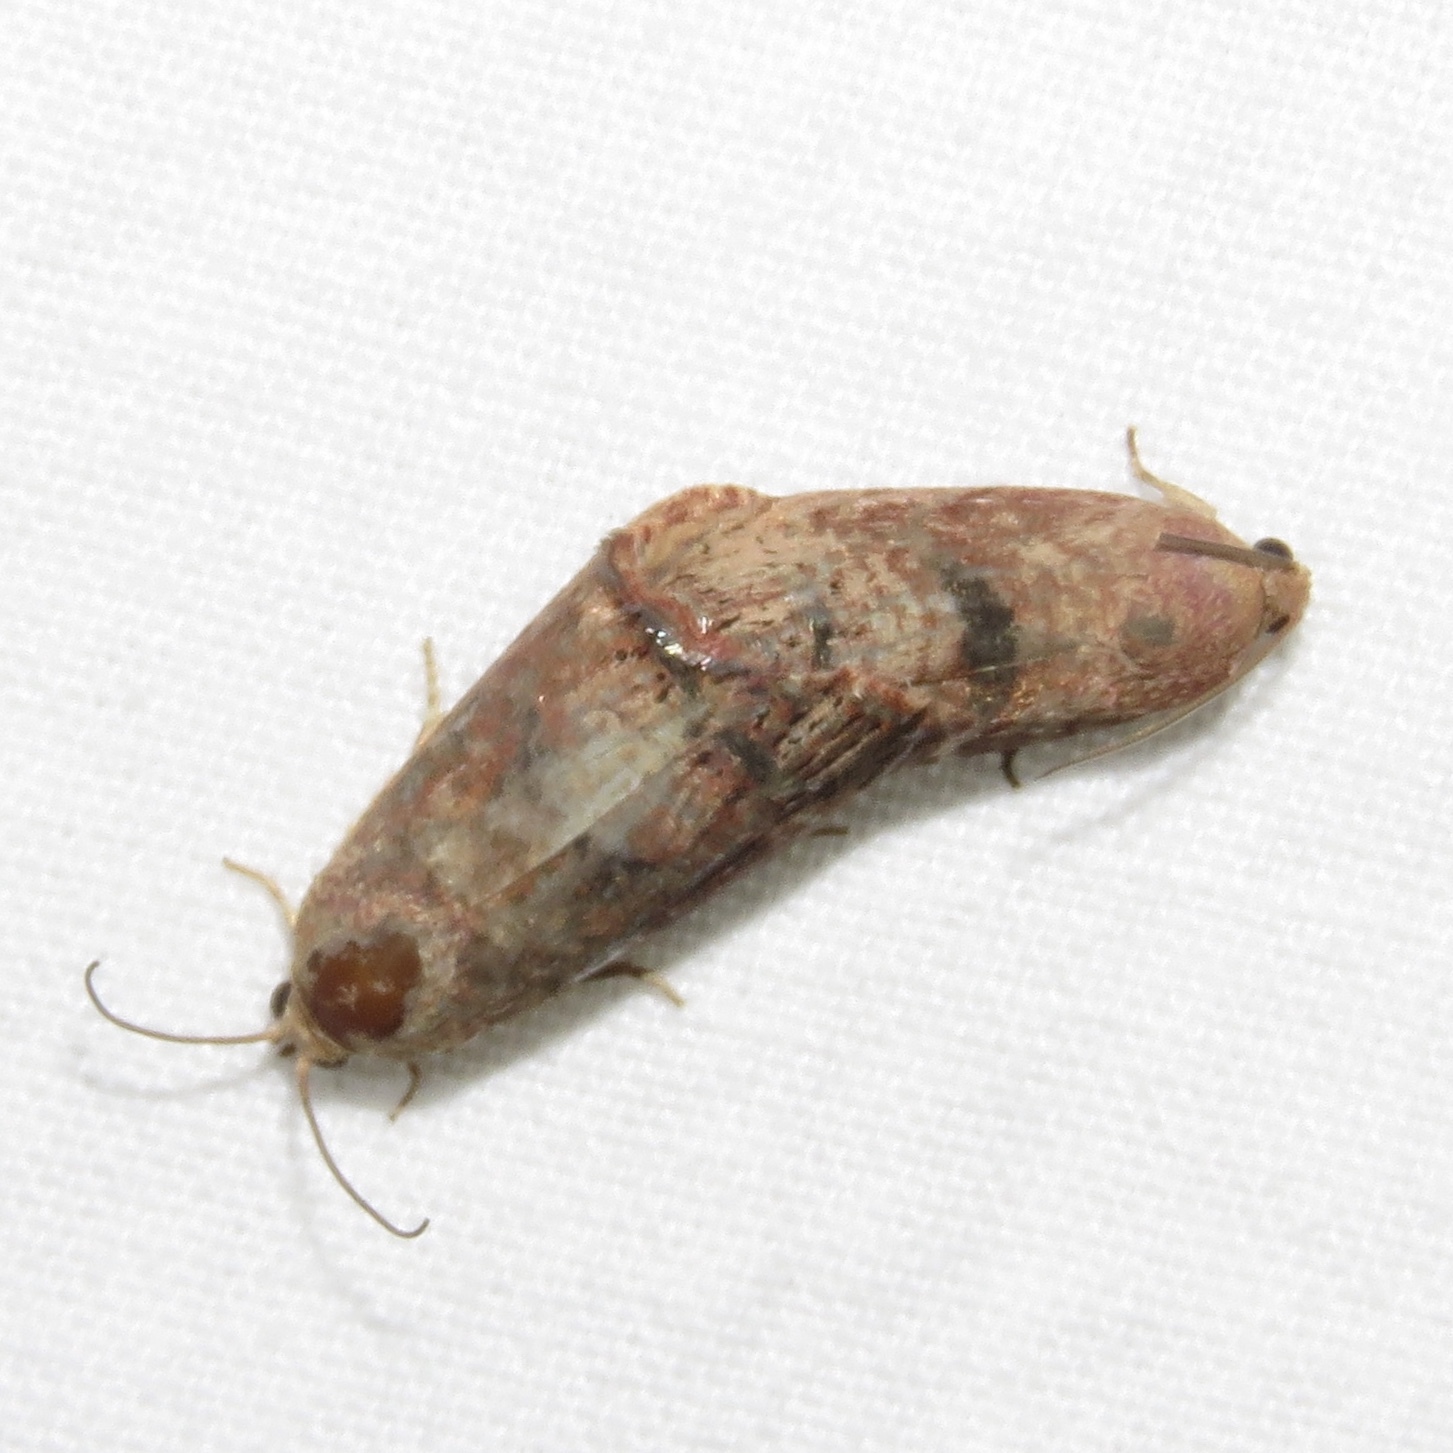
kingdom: Animalia
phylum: Arthropoda
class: Insecta
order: Lepidoptera
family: Tortricidae
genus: Cydia
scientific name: Cydia latiferreana
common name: Filbertworm moth
